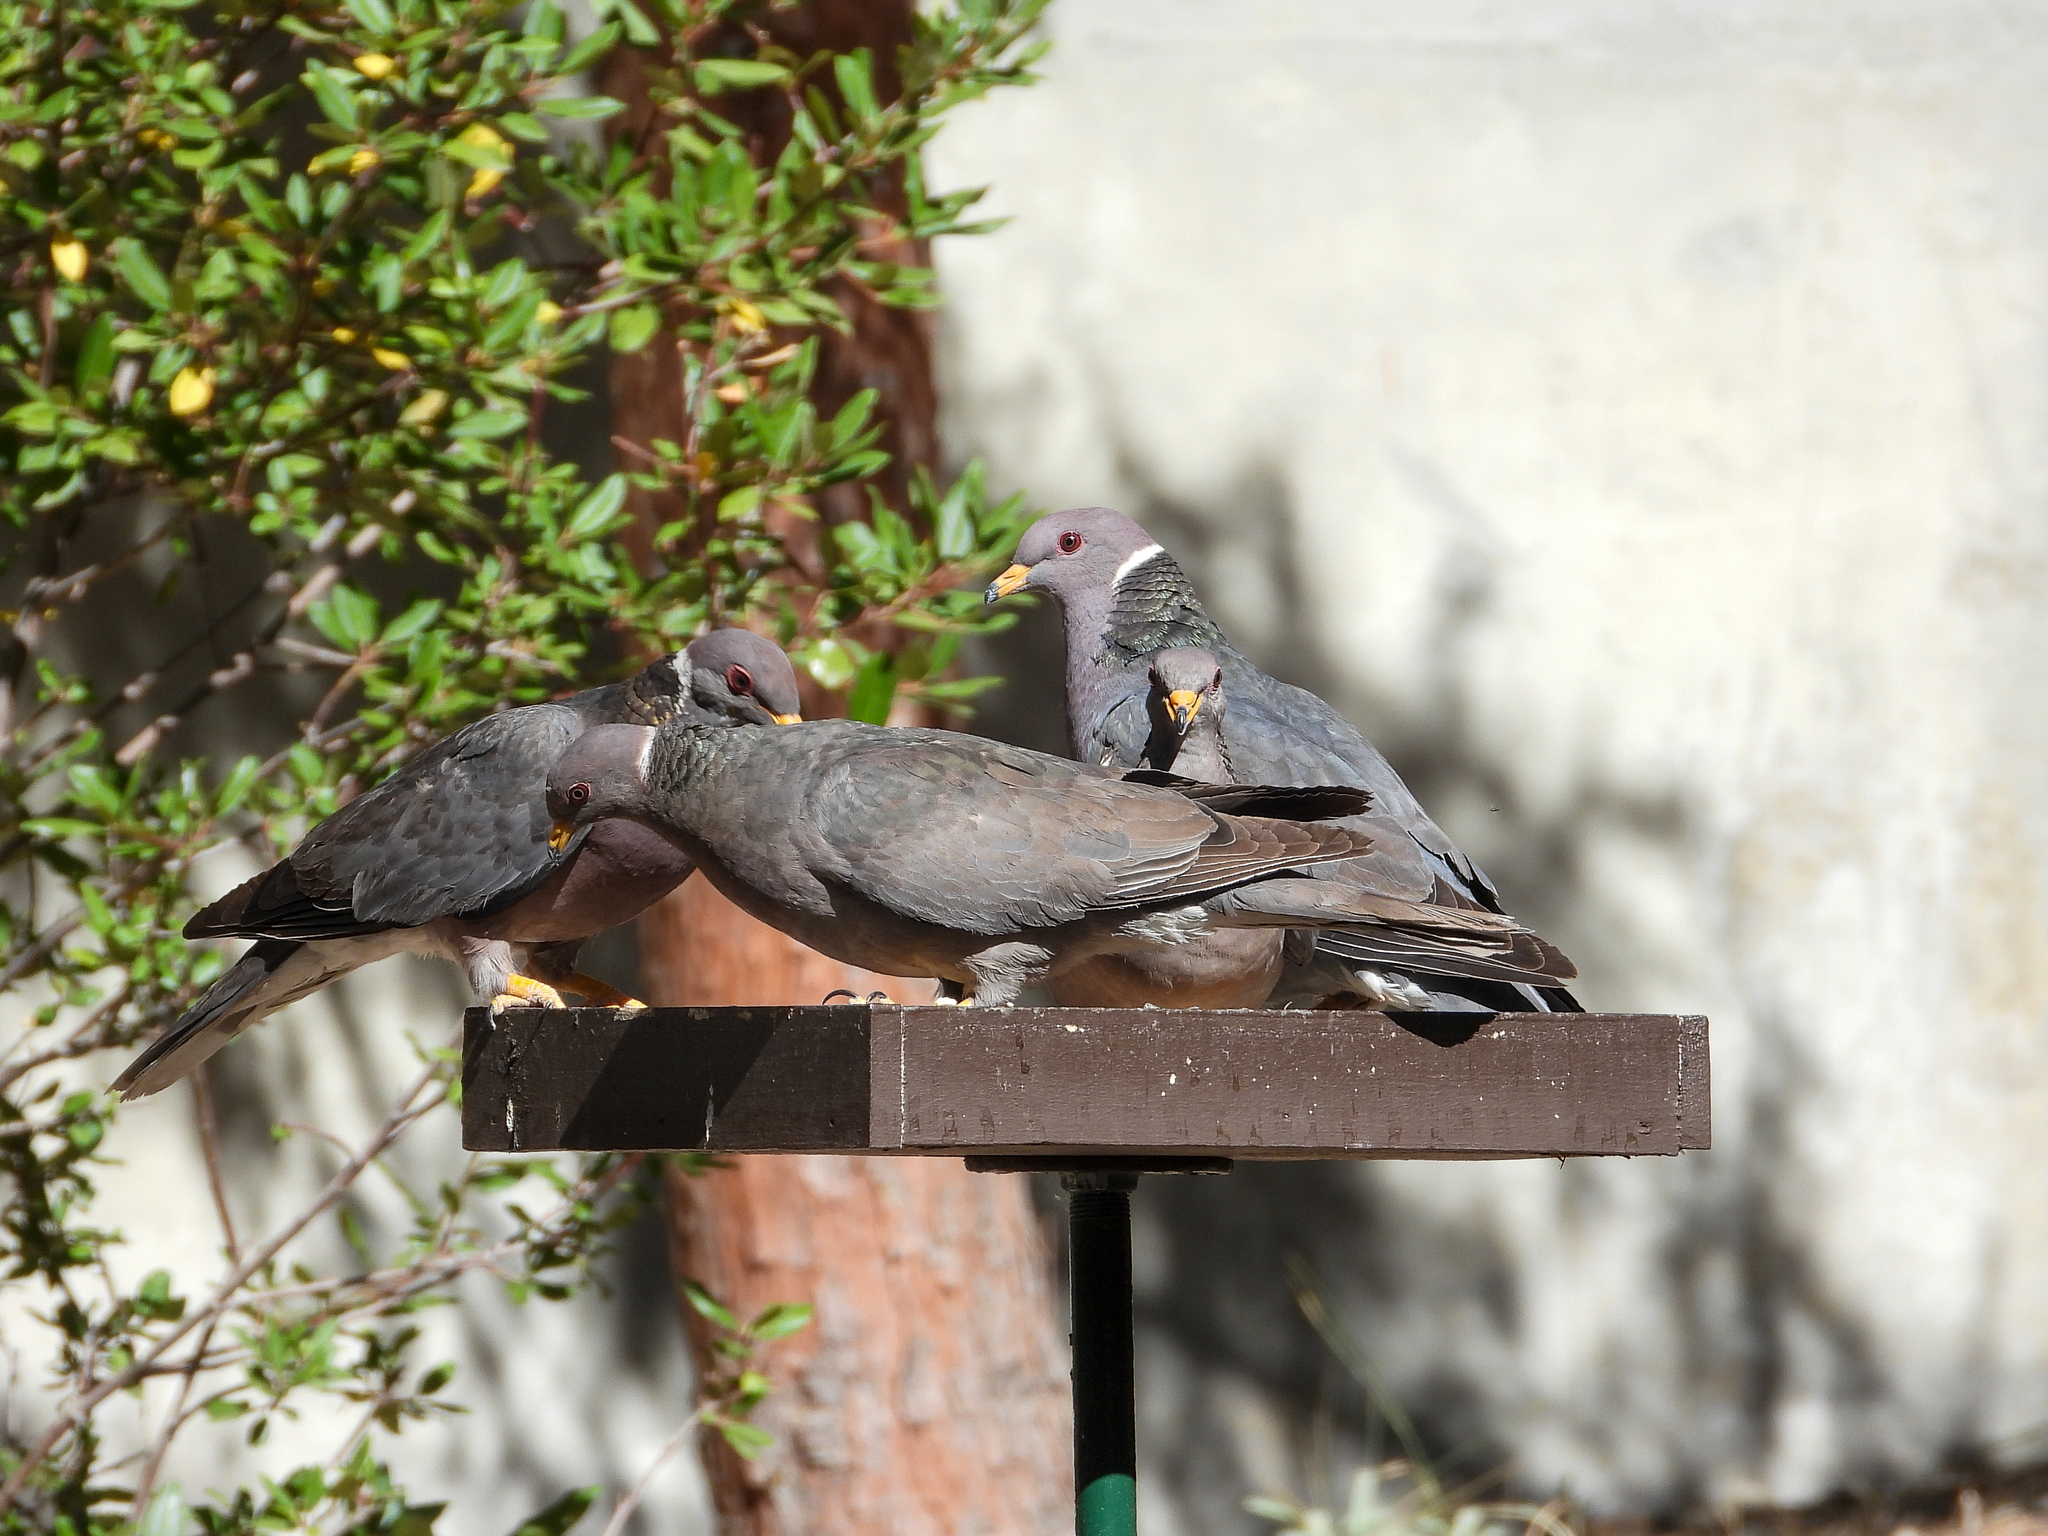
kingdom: Animalia
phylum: Chordata
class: Aves
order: Columbiformes
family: Columbidae
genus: Patagioenas
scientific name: Patagioenas fasciata
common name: Band-tailed pigeon
